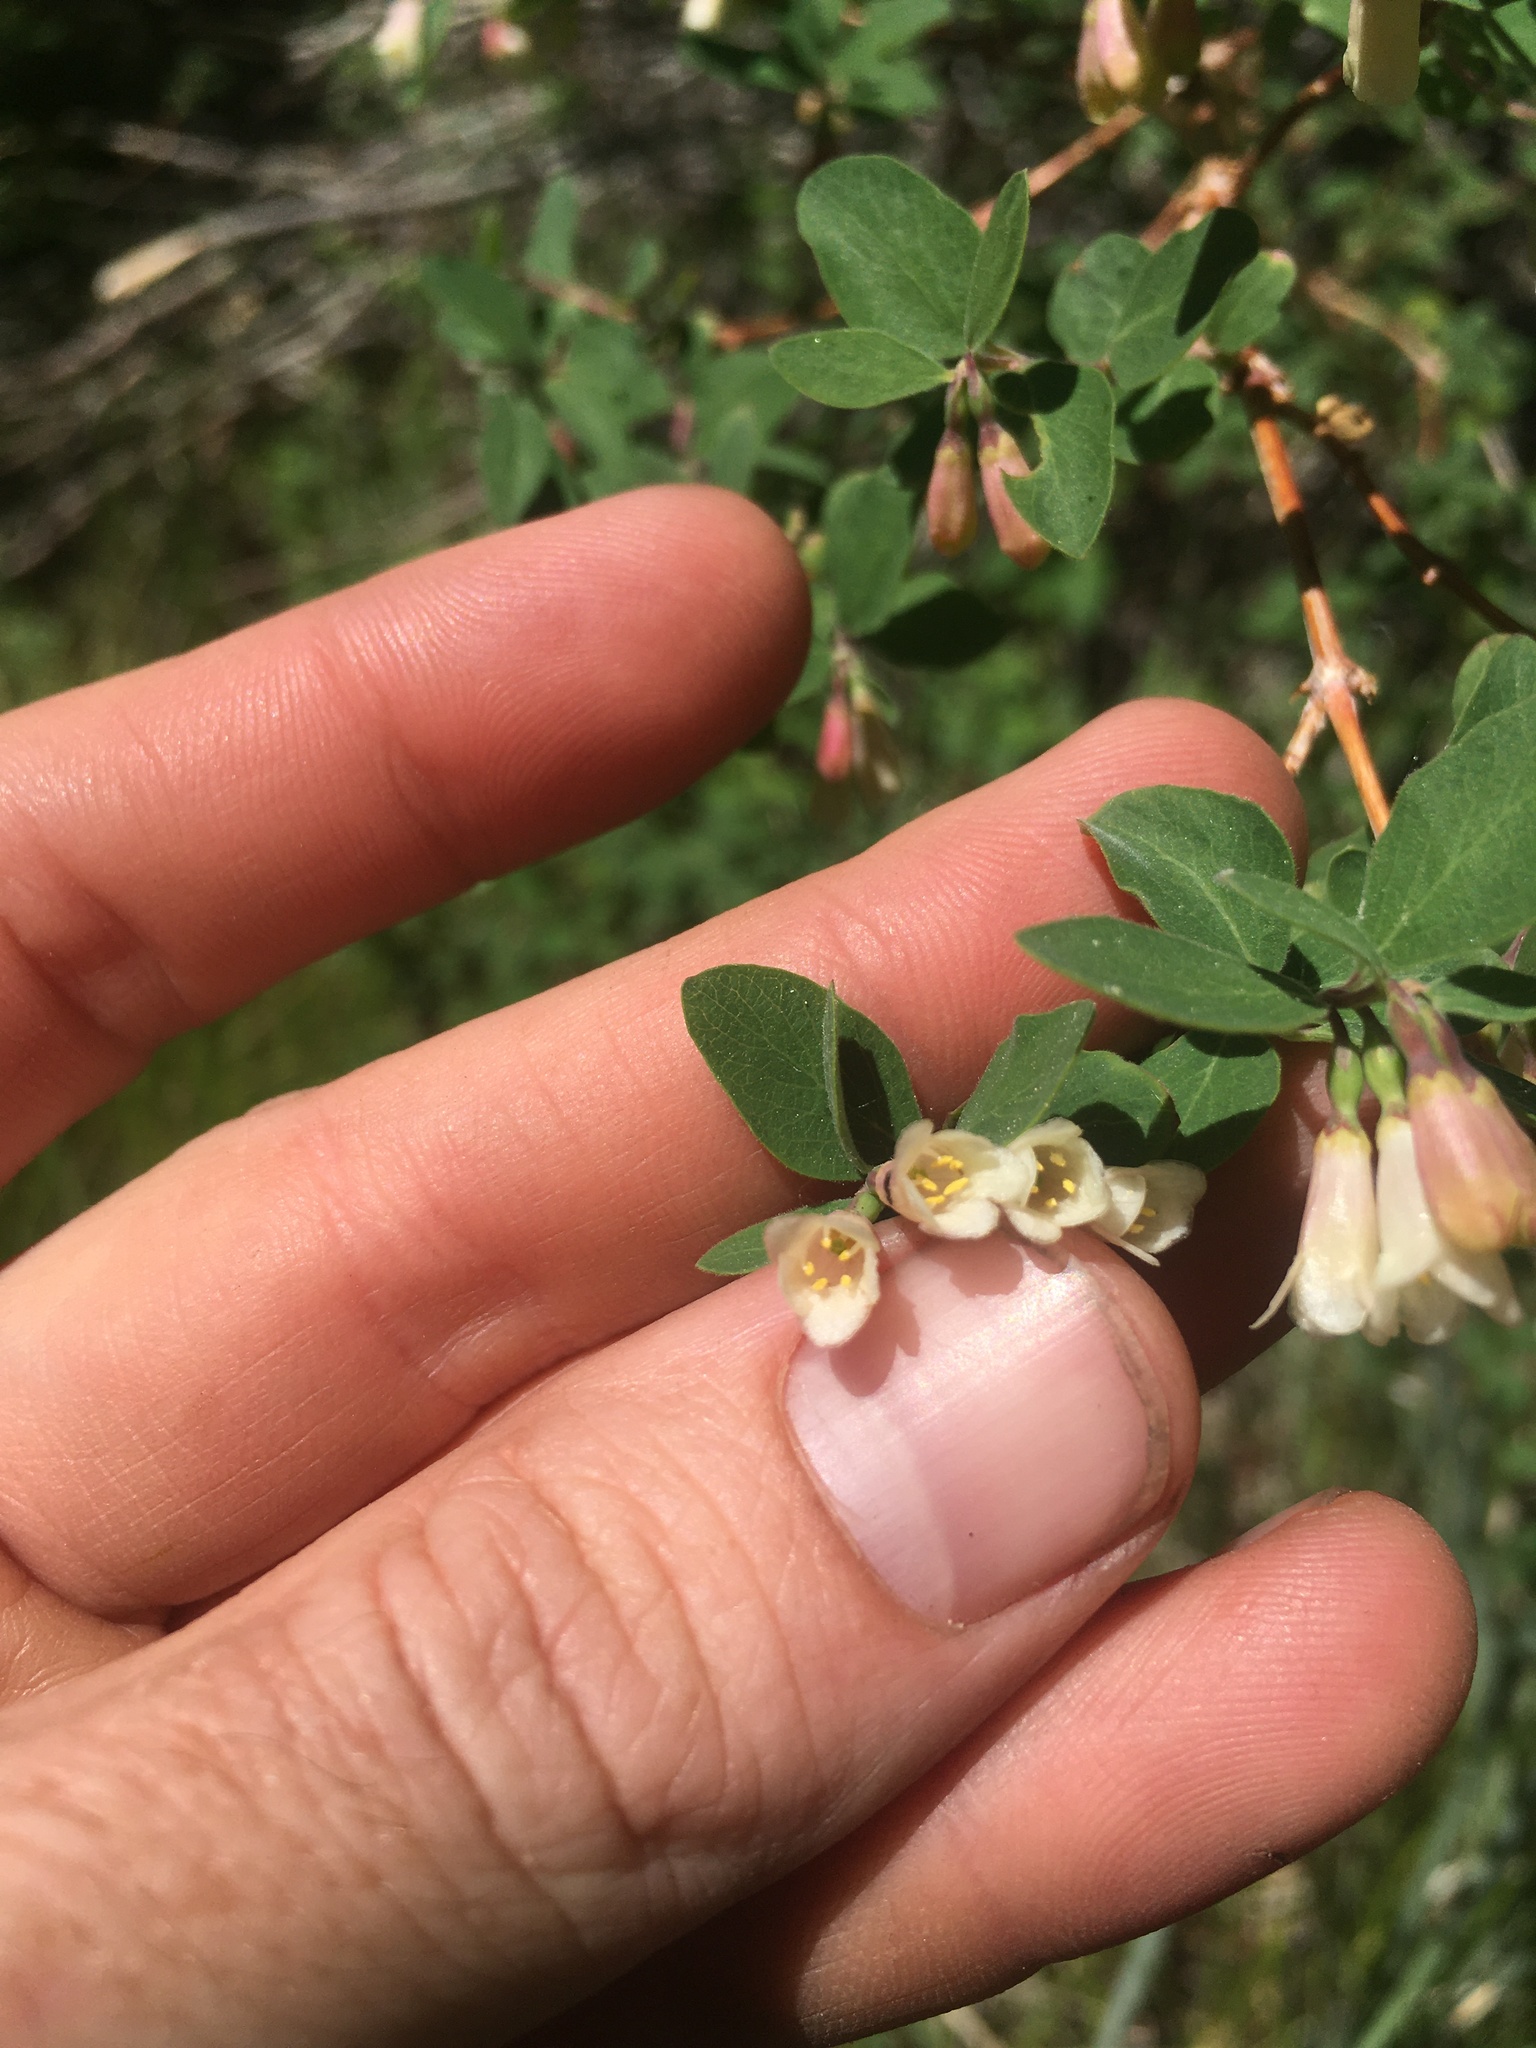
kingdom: Plantae
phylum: Tracheophyta
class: Magnoliopsida
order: Dipsacales
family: Caprifoliaceae
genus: Symphoricarpos
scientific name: Symphoricarpos rotundifolius
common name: Round-leaved snowberry
